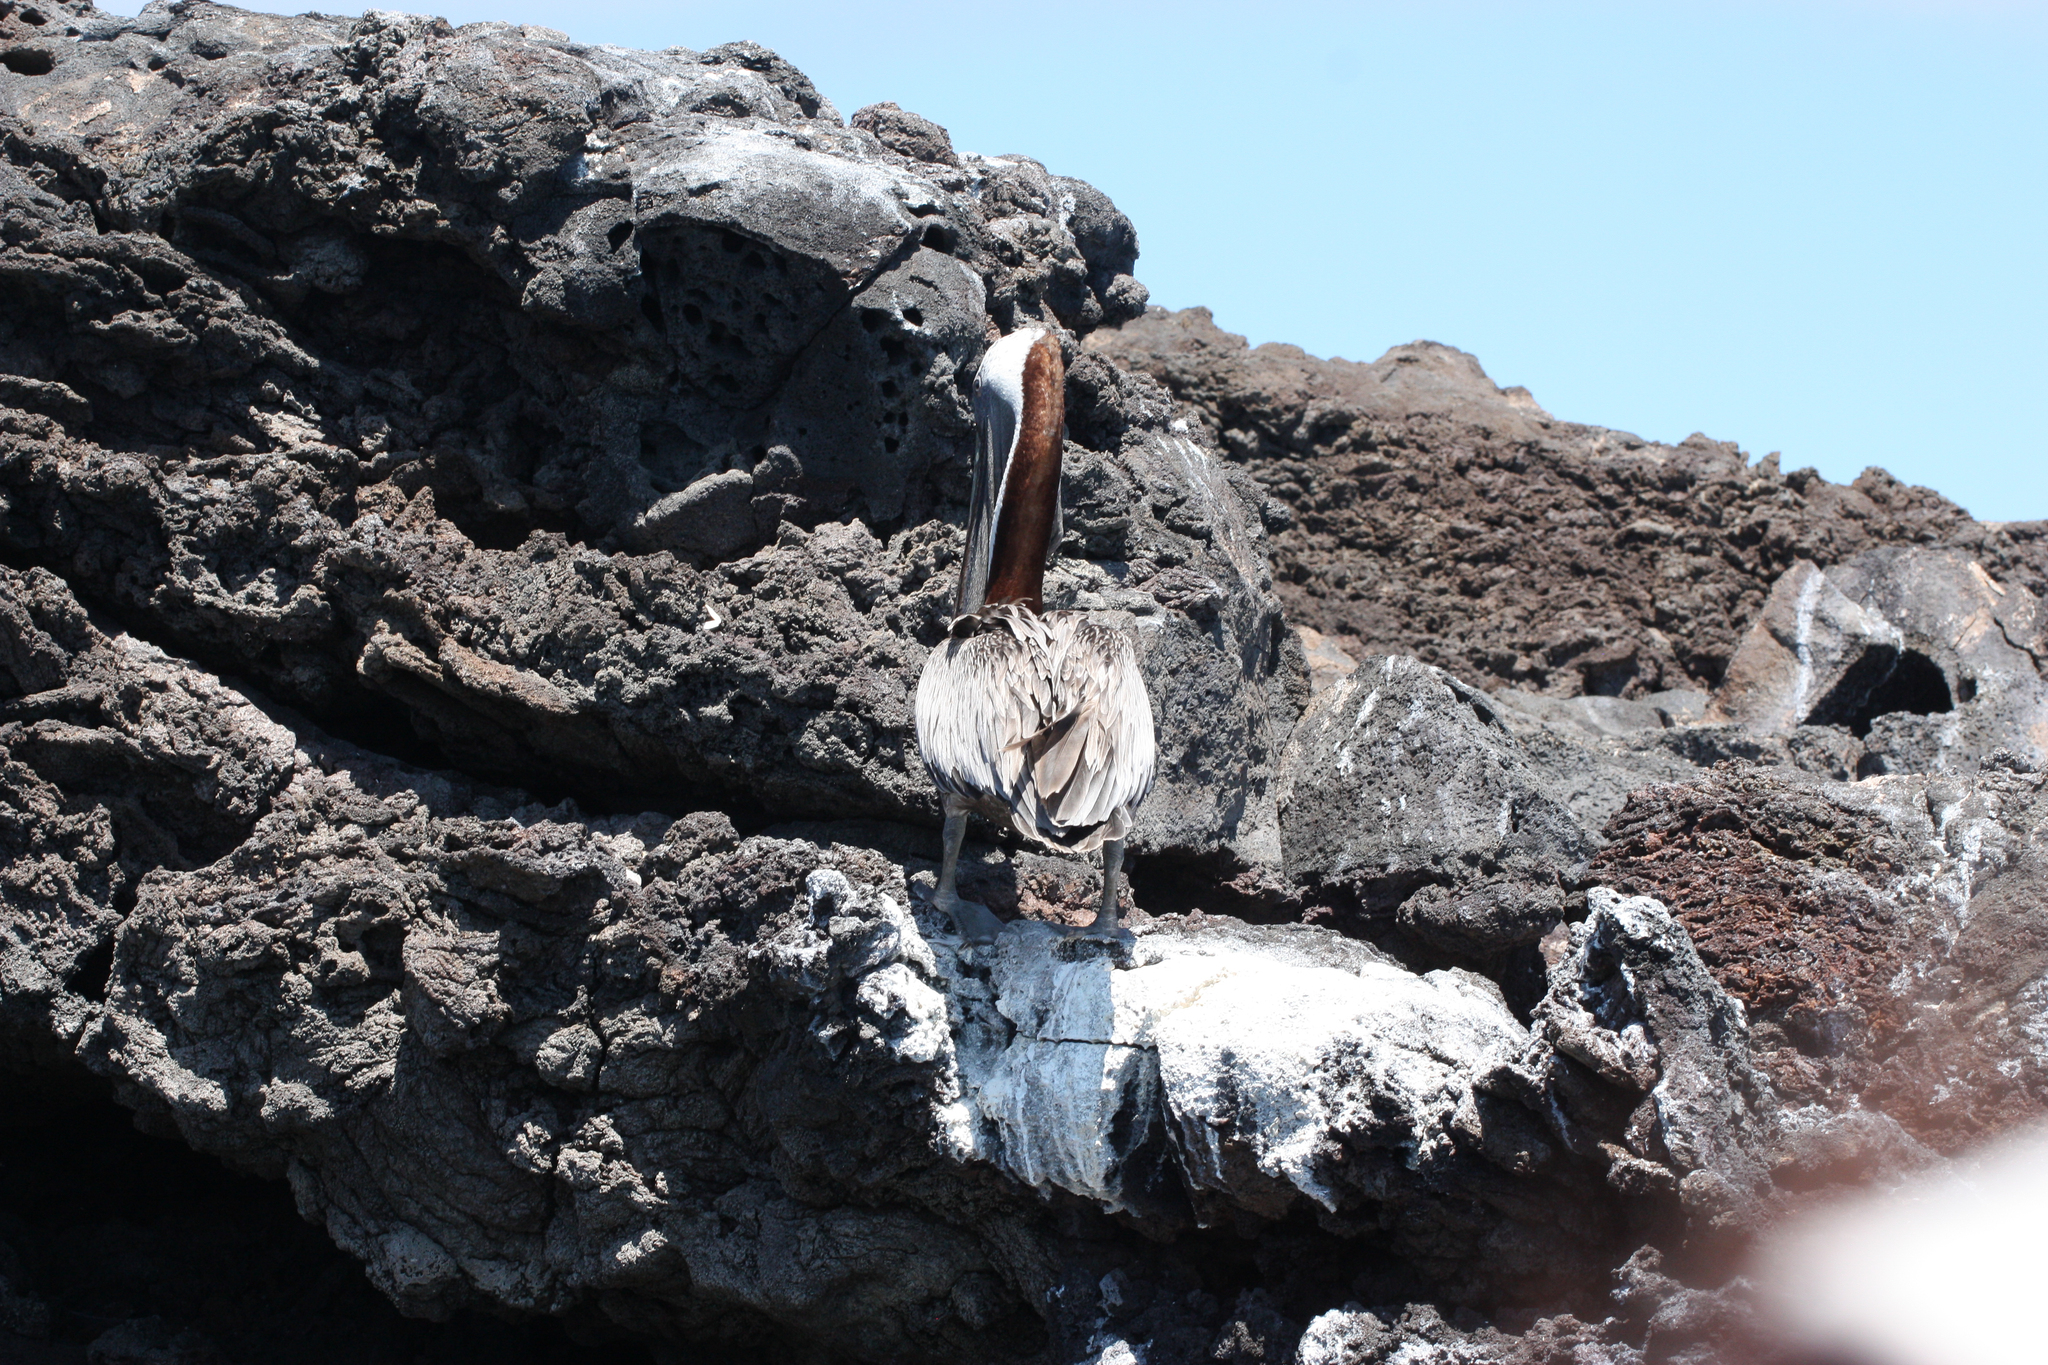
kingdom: Animalia
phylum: Chordata
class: Aves
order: Pelecaniformes
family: Pelecanidae
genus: Pelecanus
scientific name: Pelecanus occidentalis
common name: Brown pelican
